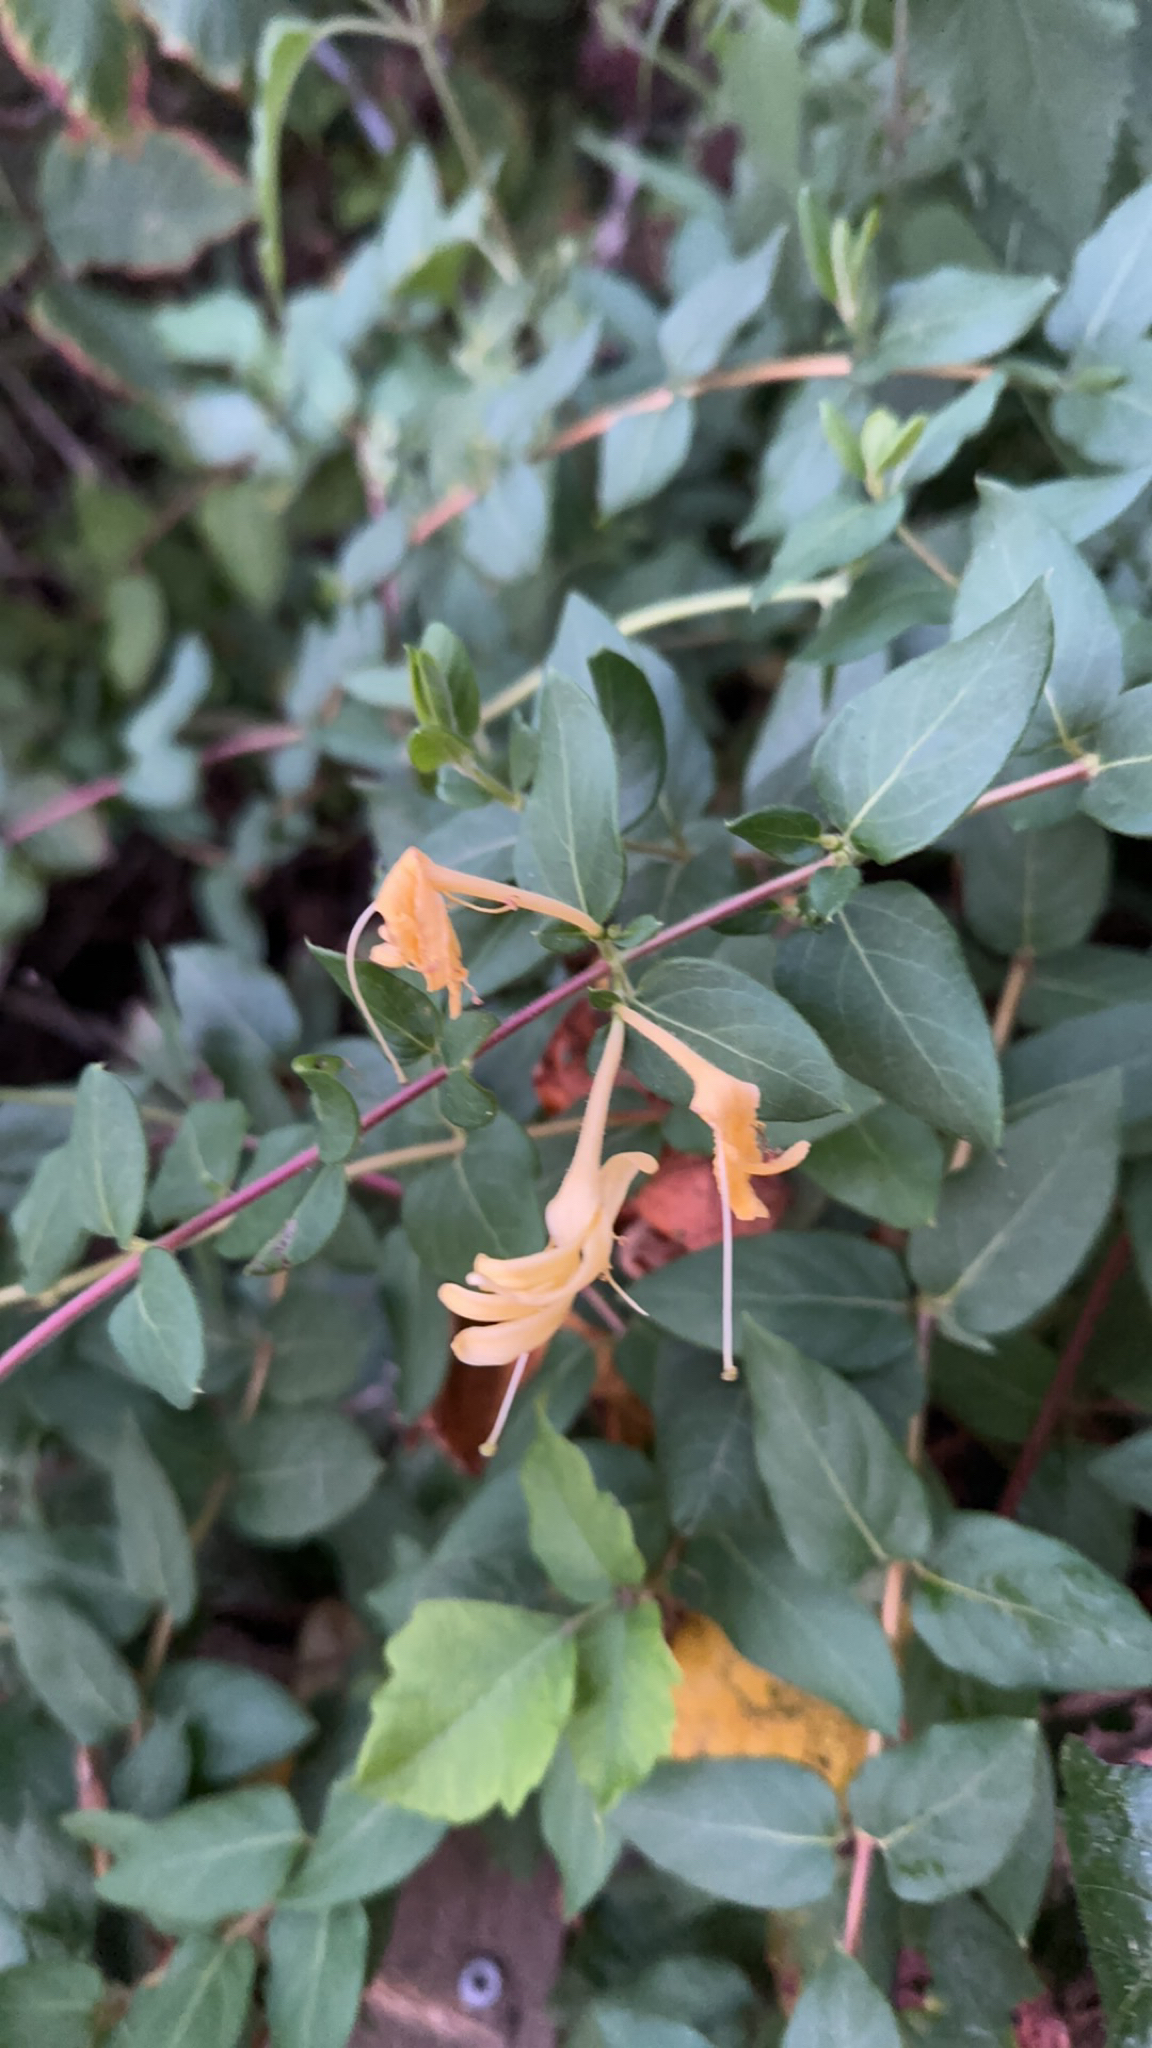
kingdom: Plantae
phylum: Tracheophyta
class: Magnoliopsida
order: Dipsacales
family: Caprifoliaceae
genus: Lonicera
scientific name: Lonicera japonica
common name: Japanese honeysuckle
